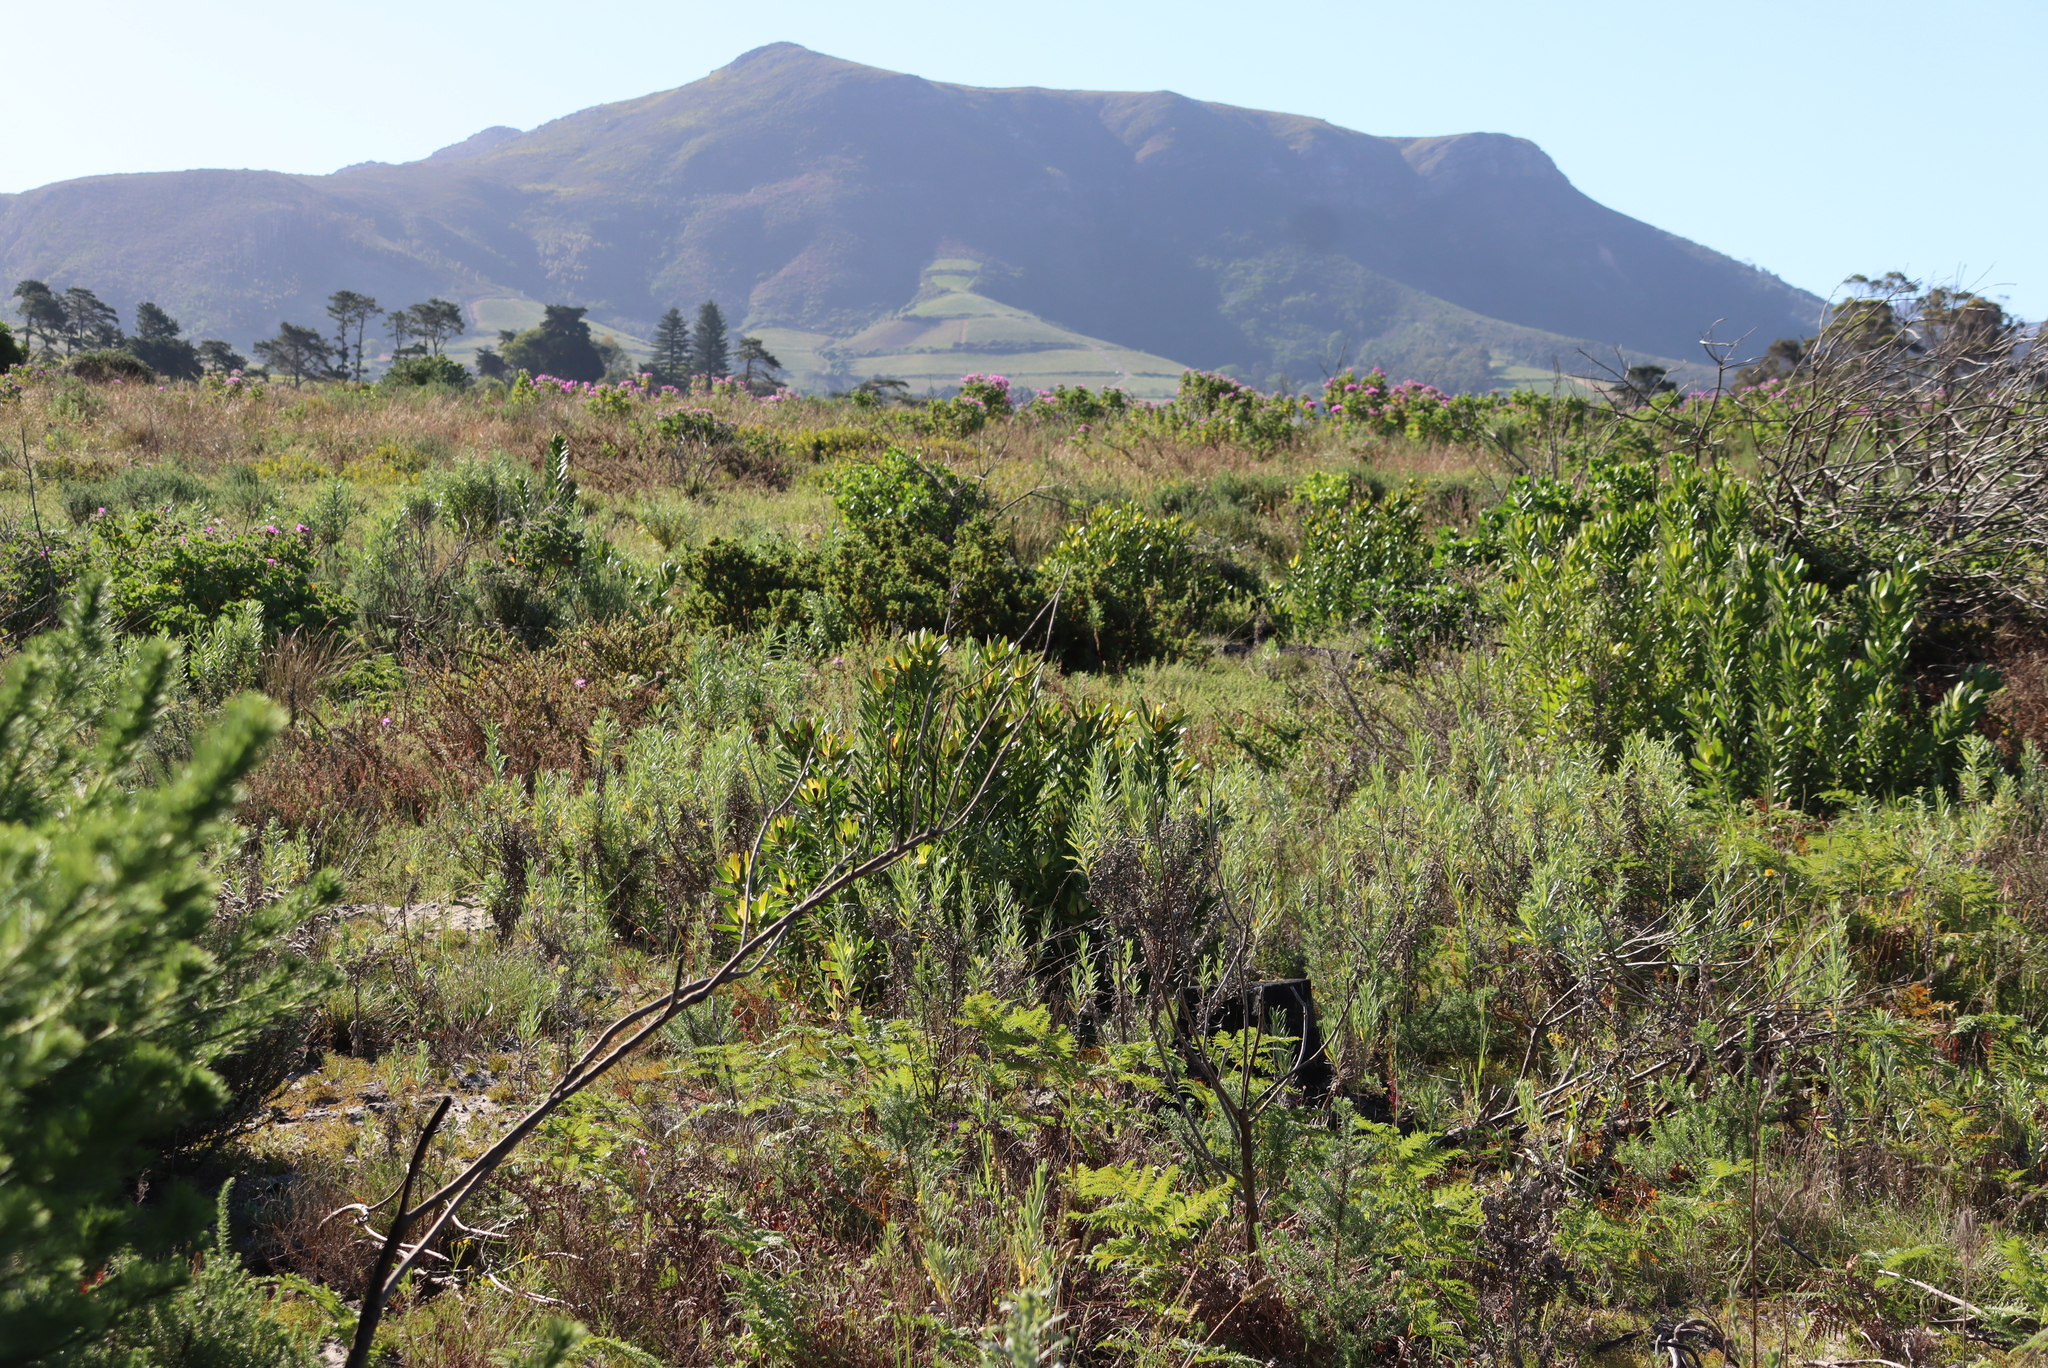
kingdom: Plantae
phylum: Tracheophyta
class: Magnoliopsida
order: Proteales
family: Proteaceae
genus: Leucadendron
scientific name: Leucadendron laureolum
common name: Golden sunshinebush
